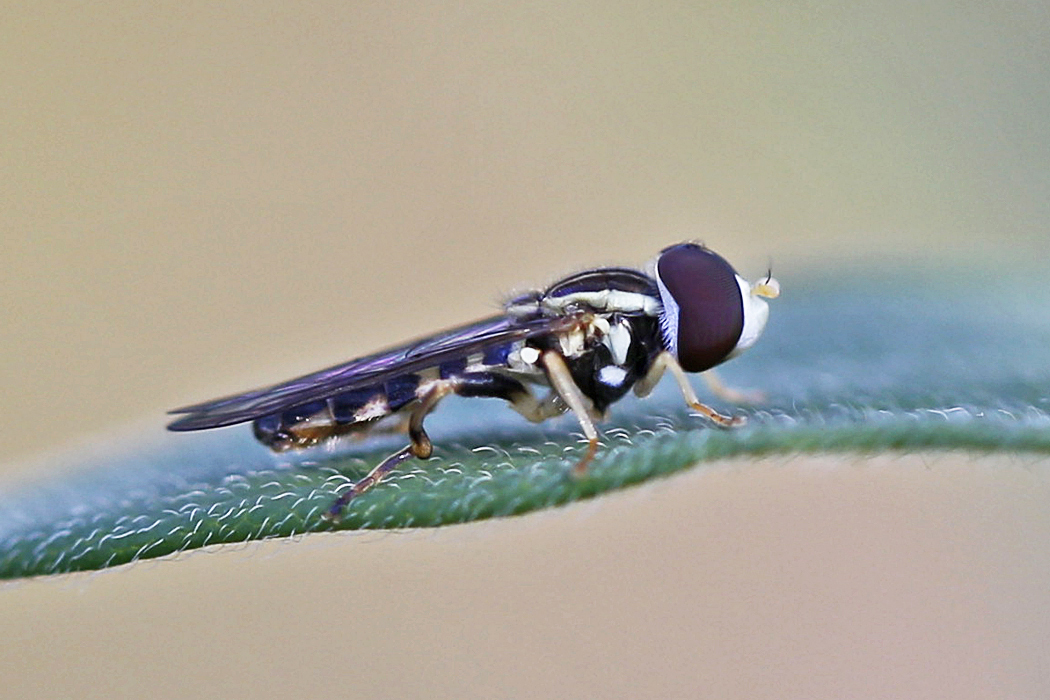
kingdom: Animalia
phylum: Arthropoda
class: Insecta
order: Diptera
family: Syrphidae
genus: Toxomerus
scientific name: Toxomerus geminatus
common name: Eastern calligrapher
